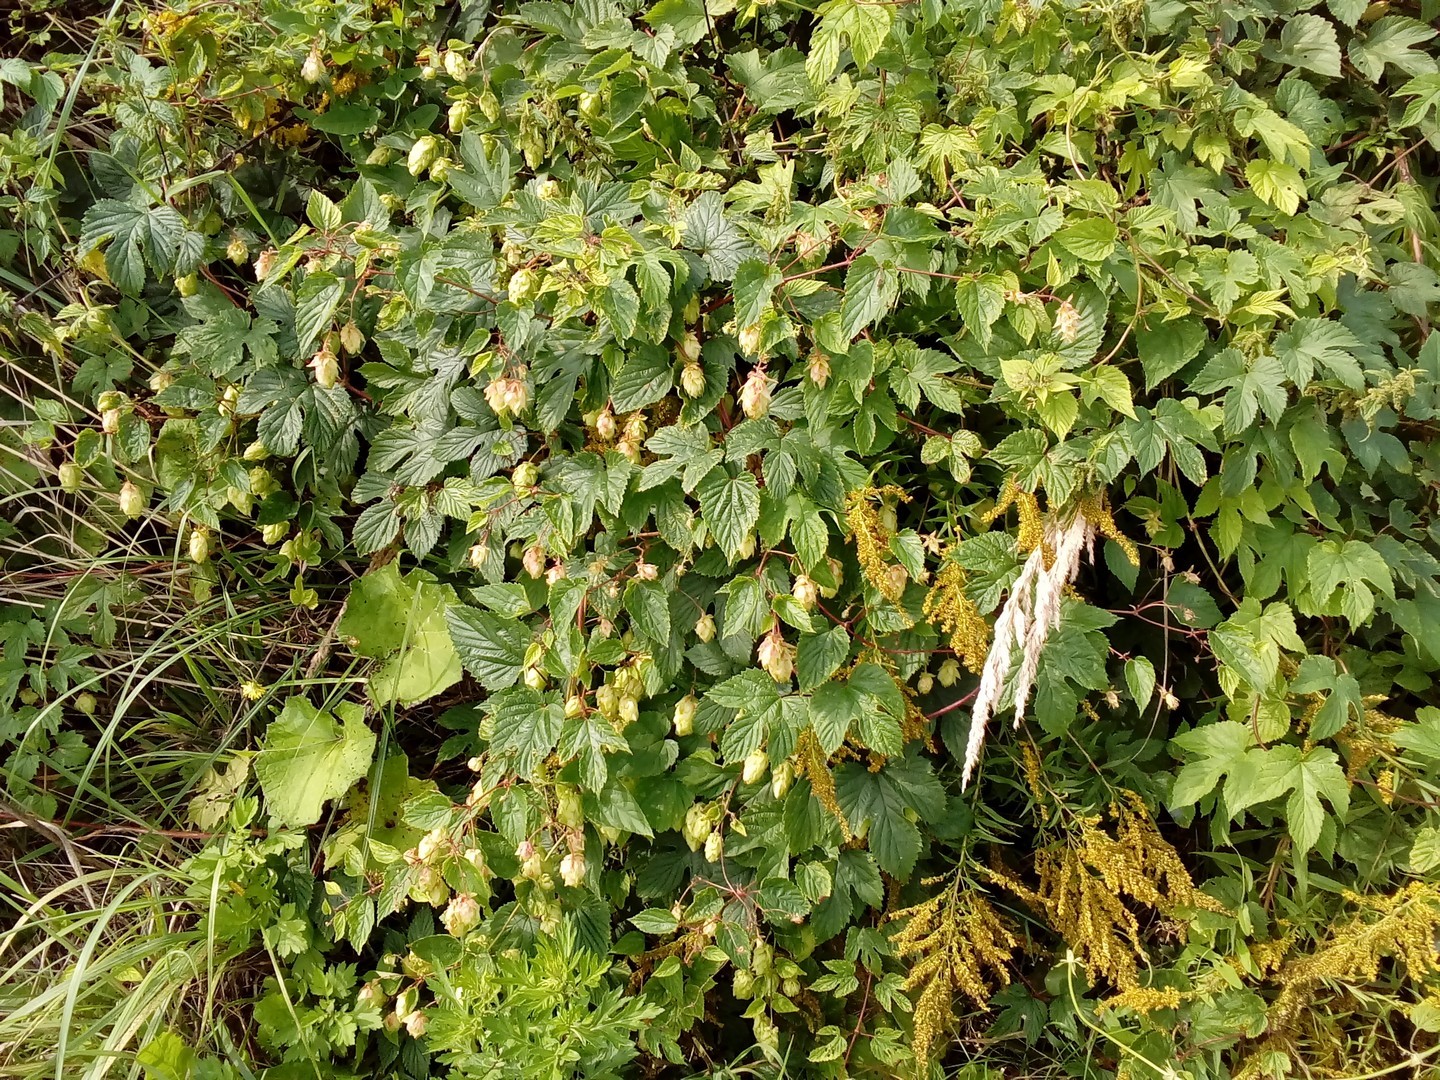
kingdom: Plantae
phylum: Tracheophyta
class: Magnoliopsida
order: Rosales
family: Cannabaceae
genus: Humulus
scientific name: Humulus lupulus
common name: Hop
